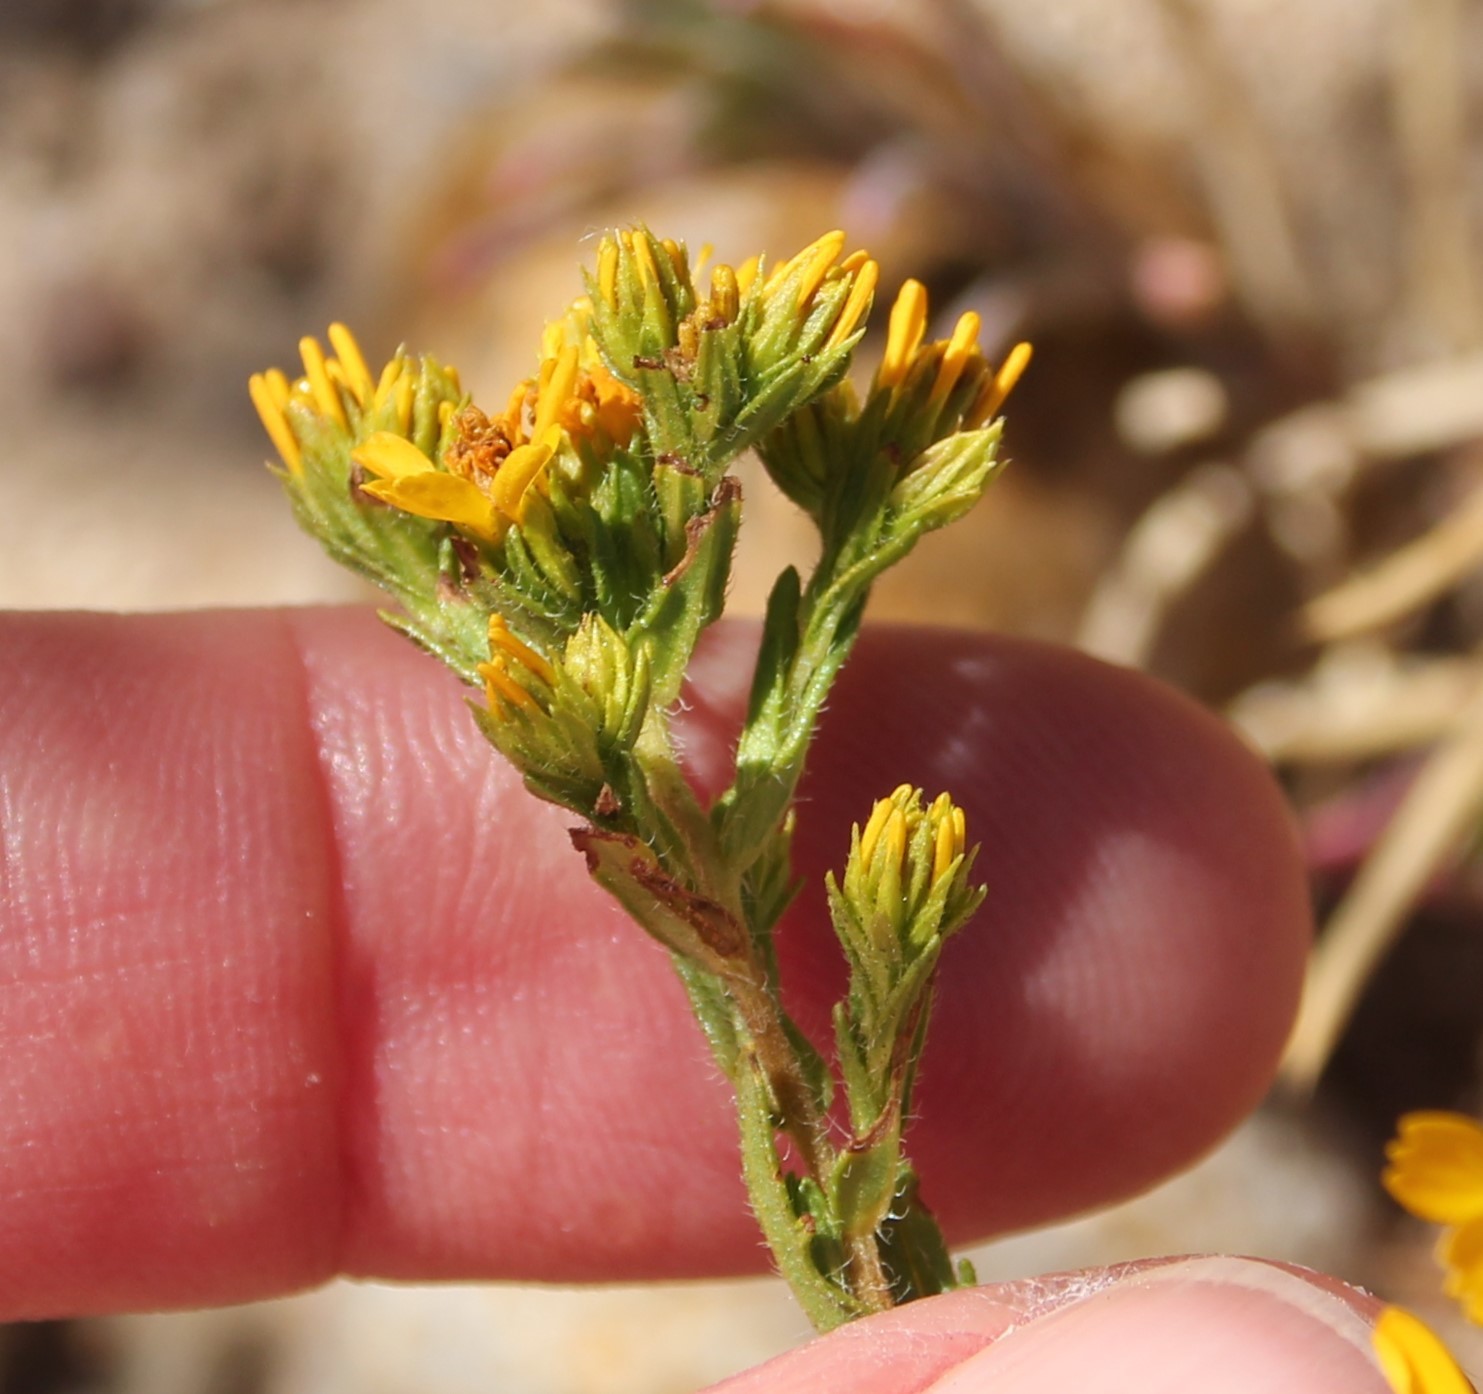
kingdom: Plantae
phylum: Tracheophyta
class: Magnoliopsida
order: Asterales
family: Asteraceae
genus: Deinandra
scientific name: Deinandra fasciculata
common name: Clustered tarweed
